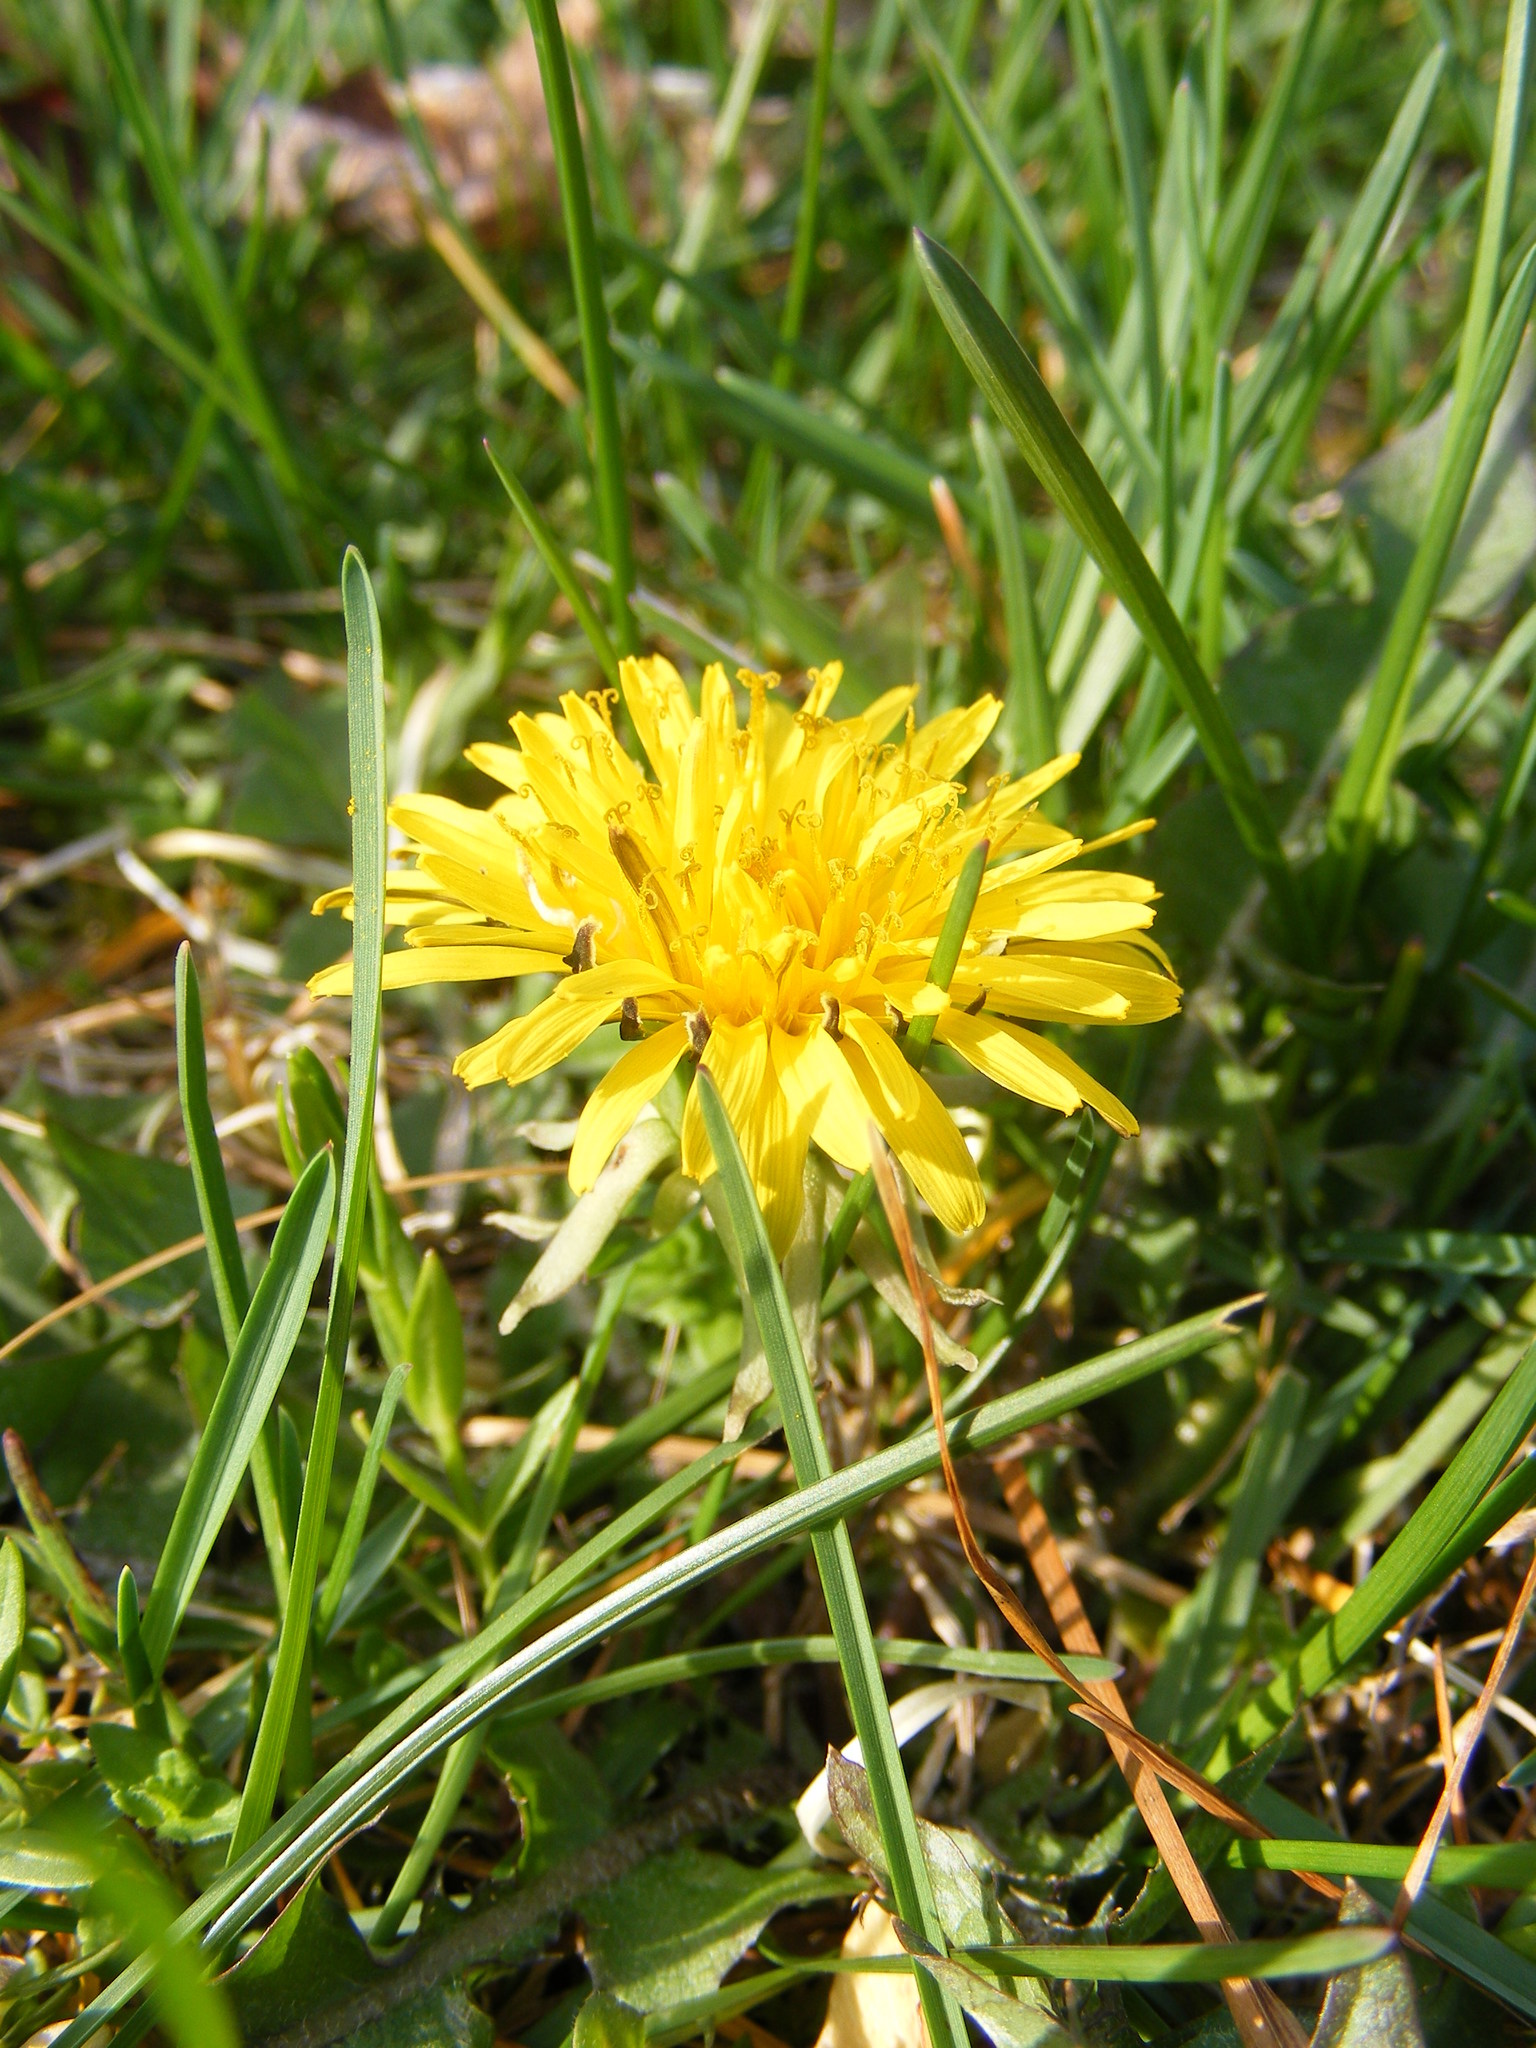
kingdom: Plantae
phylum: Tracheophyta
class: Magnoliopsida
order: Asterales
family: Asteraceae
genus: Taraxacum
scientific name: Taraxacum officinale
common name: Common dandelion
